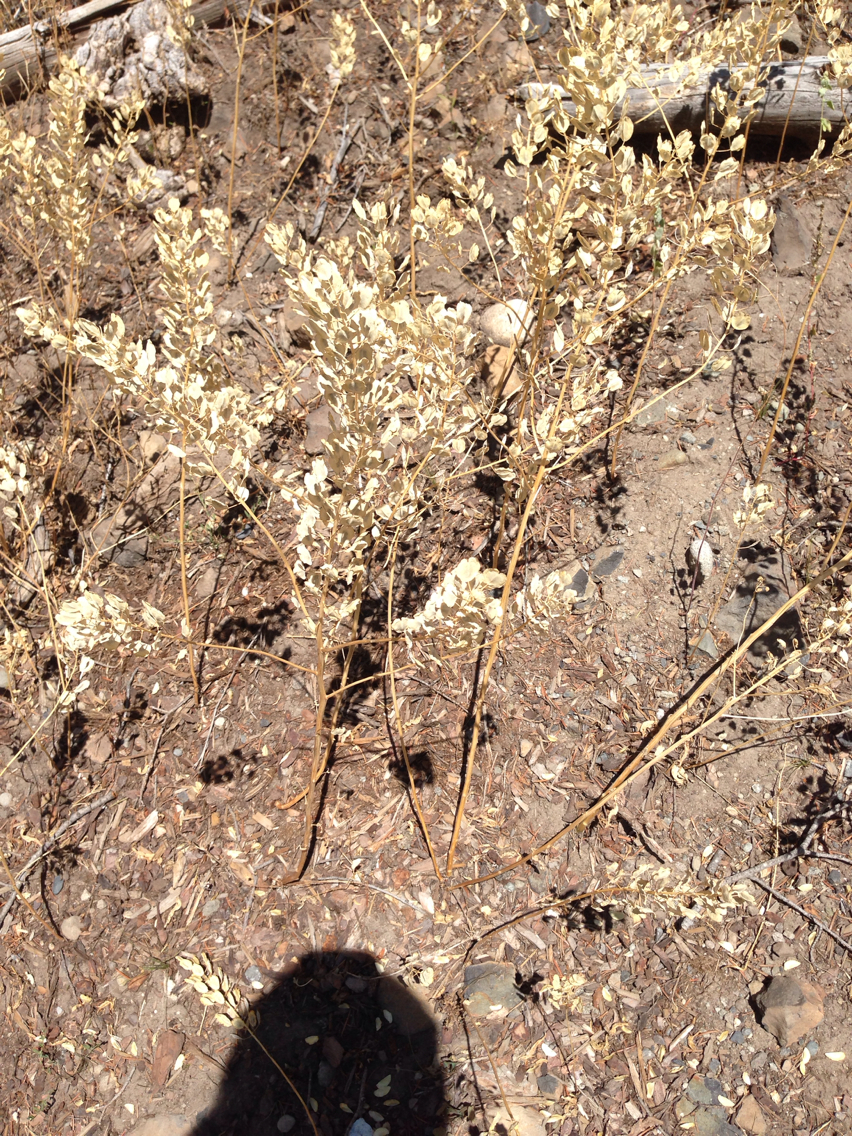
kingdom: Plantae
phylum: Tracheophyta
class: Magnoliopsida
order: Brassicales
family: Brassicaceae
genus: Thlaspi
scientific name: Thlaspi arvense
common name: Field pennycress
